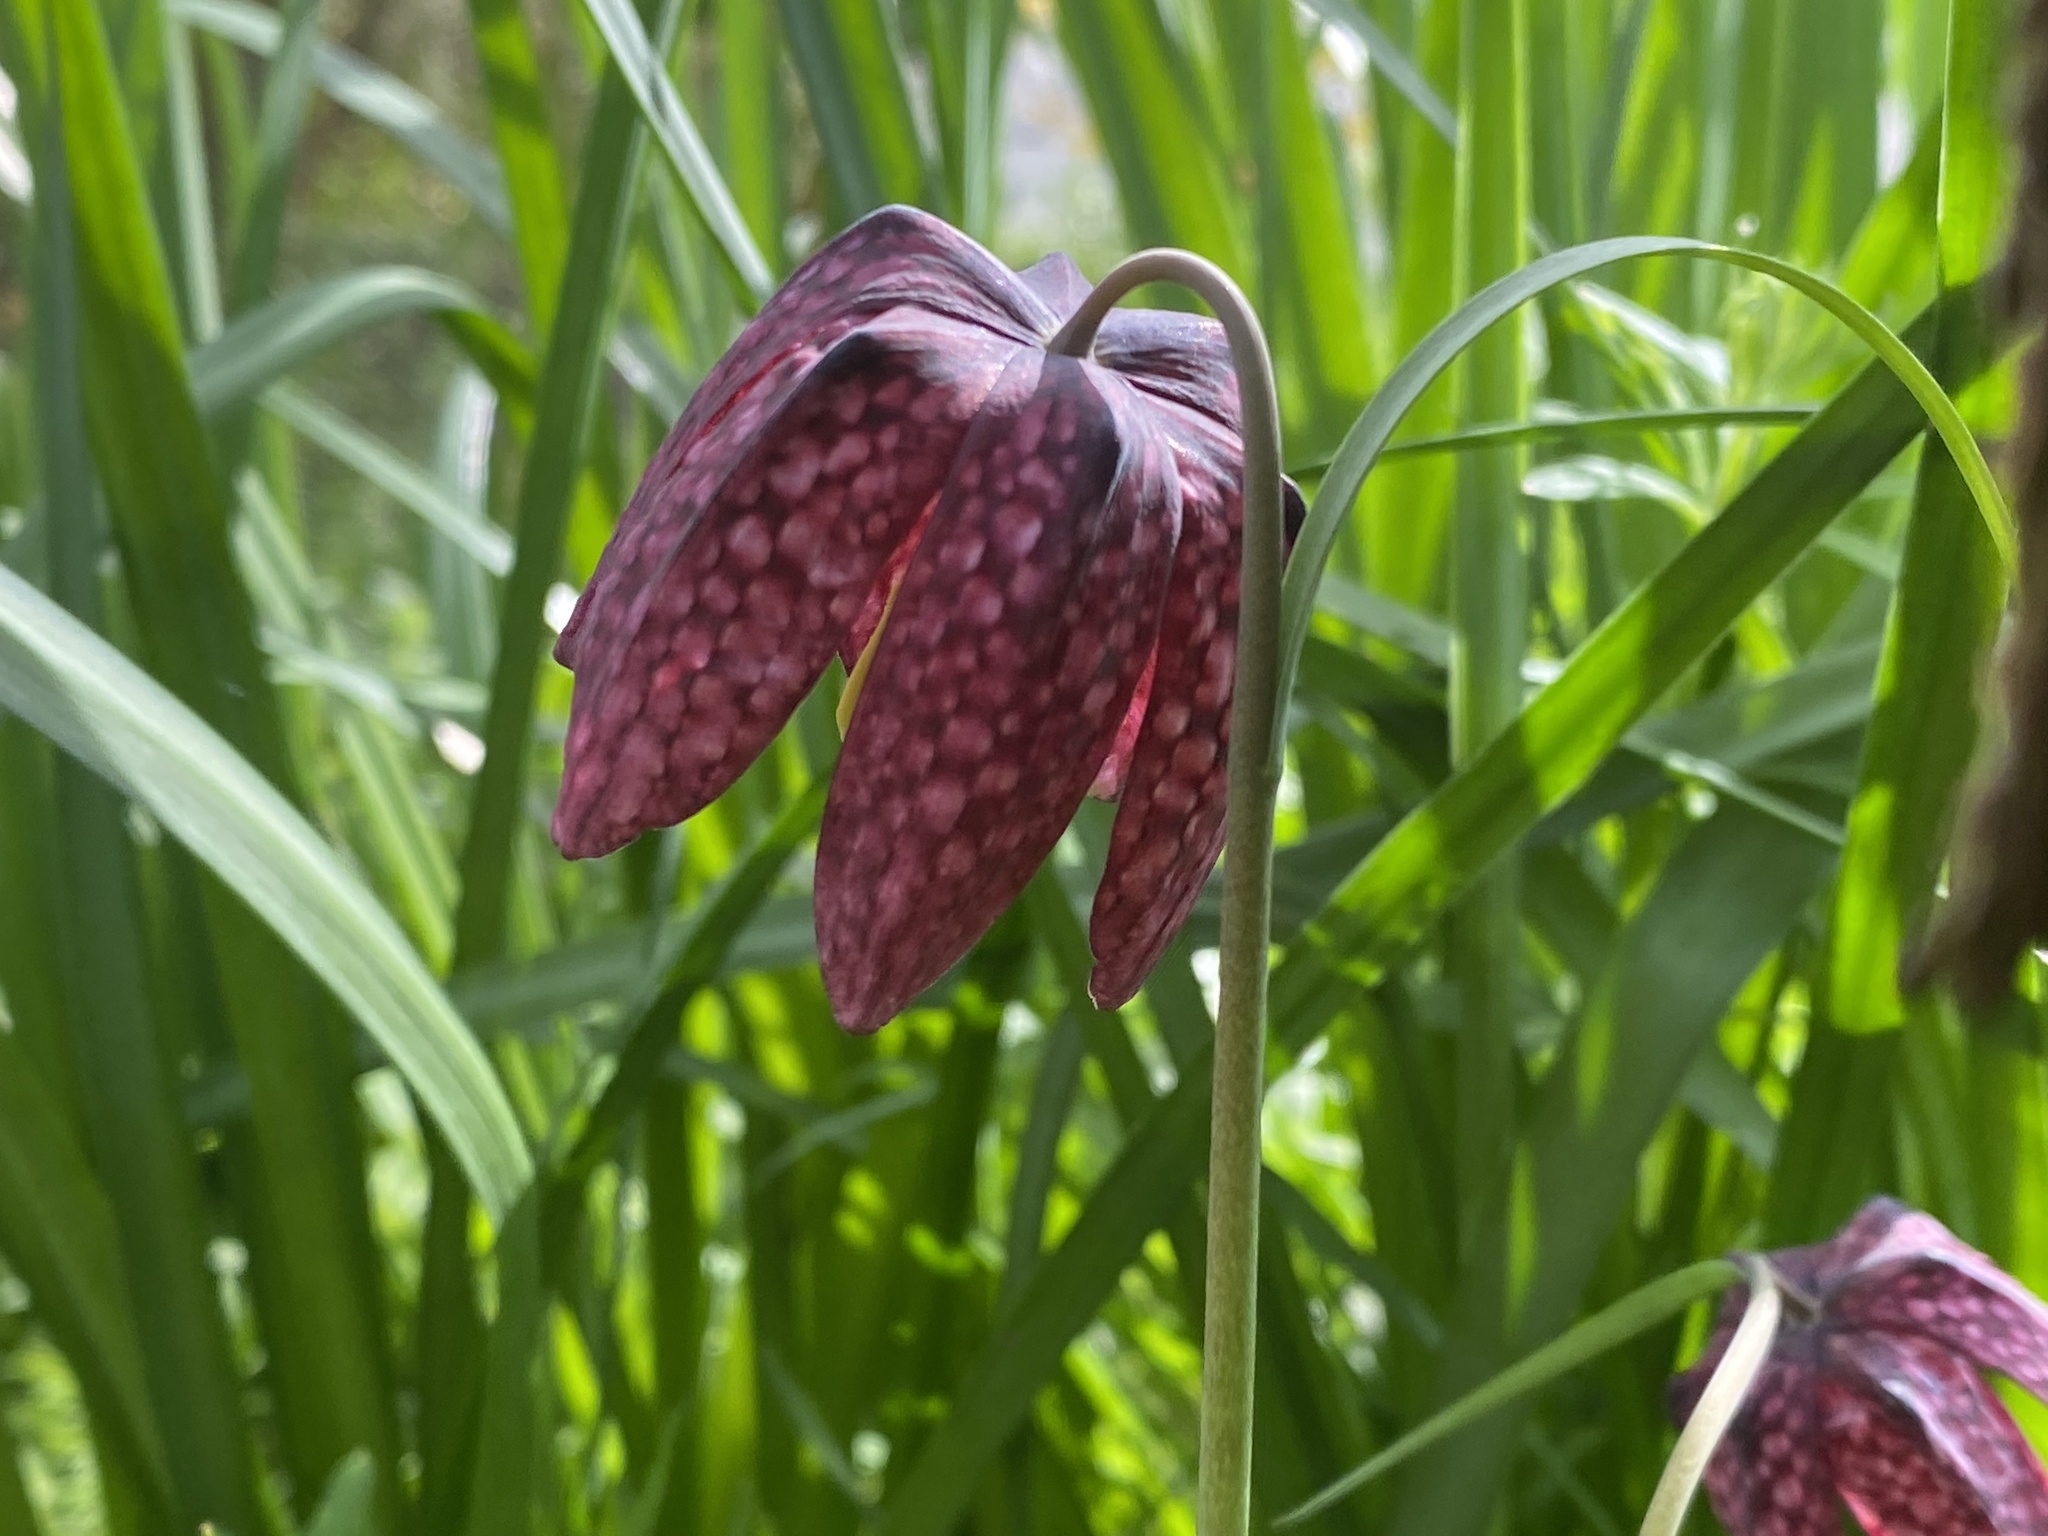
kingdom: Plantae
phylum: Tracheophyta
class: Liliopsida
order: Liliales
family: Liliaceae
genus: Fritillaria
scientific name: Fritillaria meleagris
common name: Fritillary
